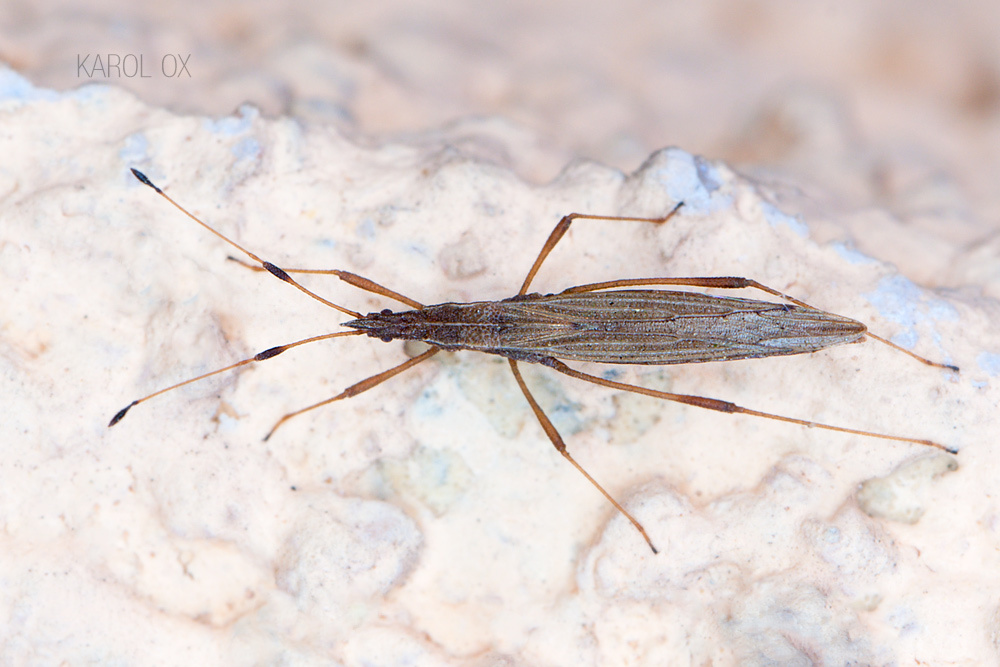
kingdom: Animalia
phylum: Arthropoda
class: Insecta
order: Hemiptera
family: Berytidae
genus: Berytinus
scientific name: Berytinus minor
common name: Stilt bug
